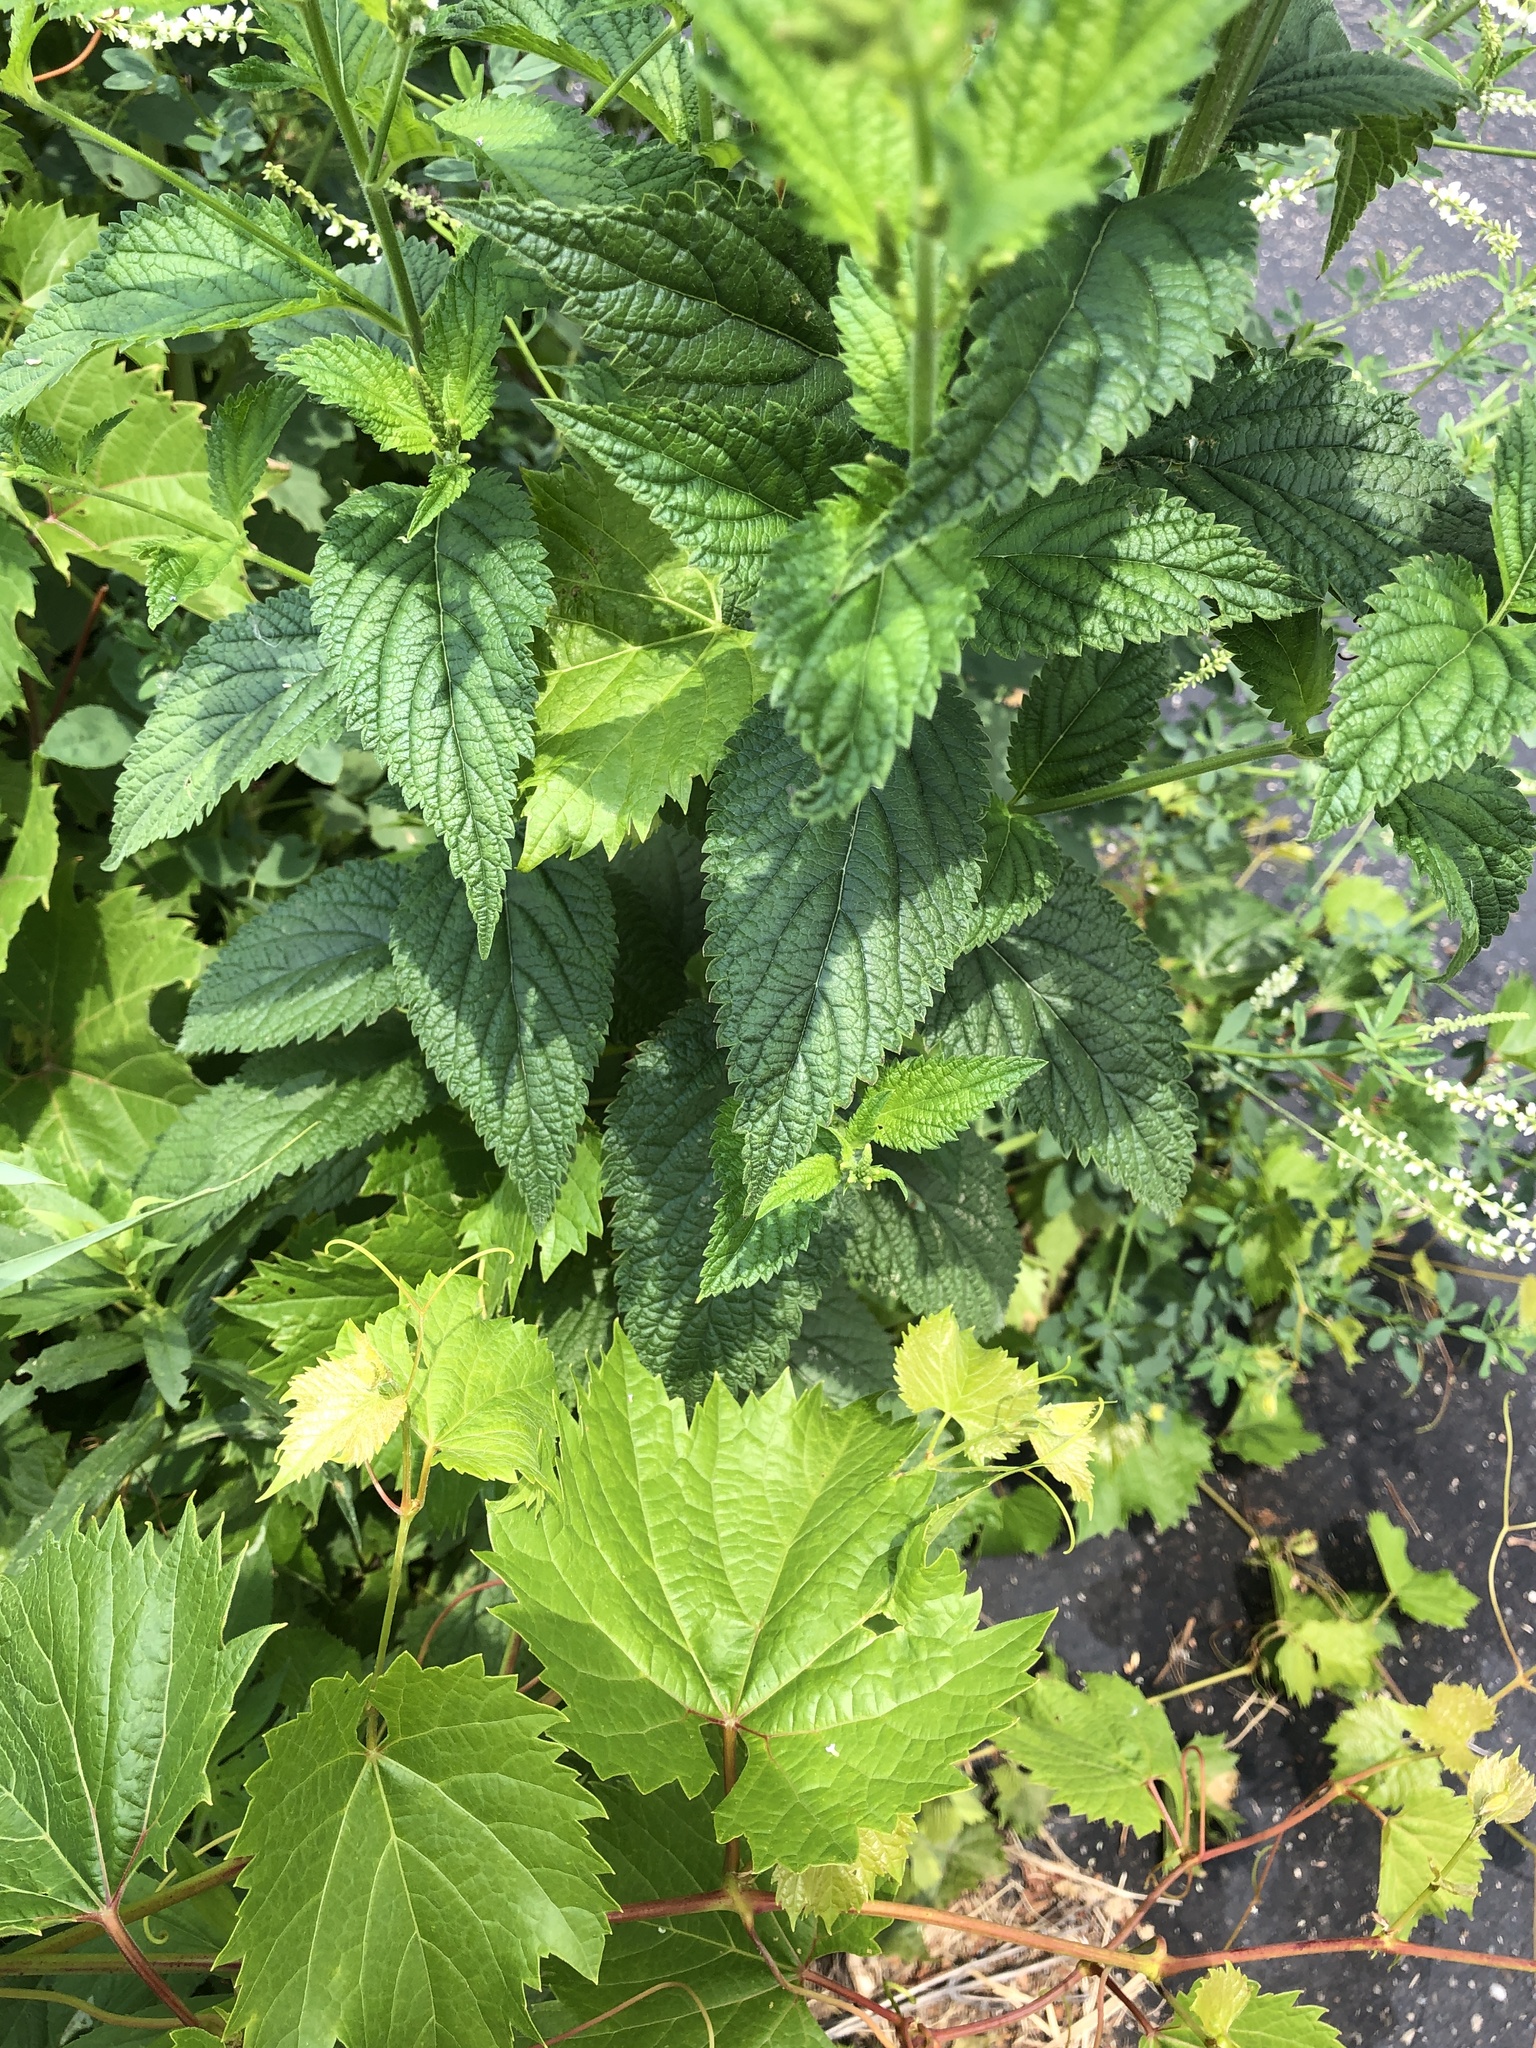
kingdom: Plantae
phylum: Tracheophyta
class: Magnoliopsida
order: Lamiales
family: Verbenaceae
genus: Verbena
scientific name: Verbena urticifolia
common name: Nettle-leaved vervain
